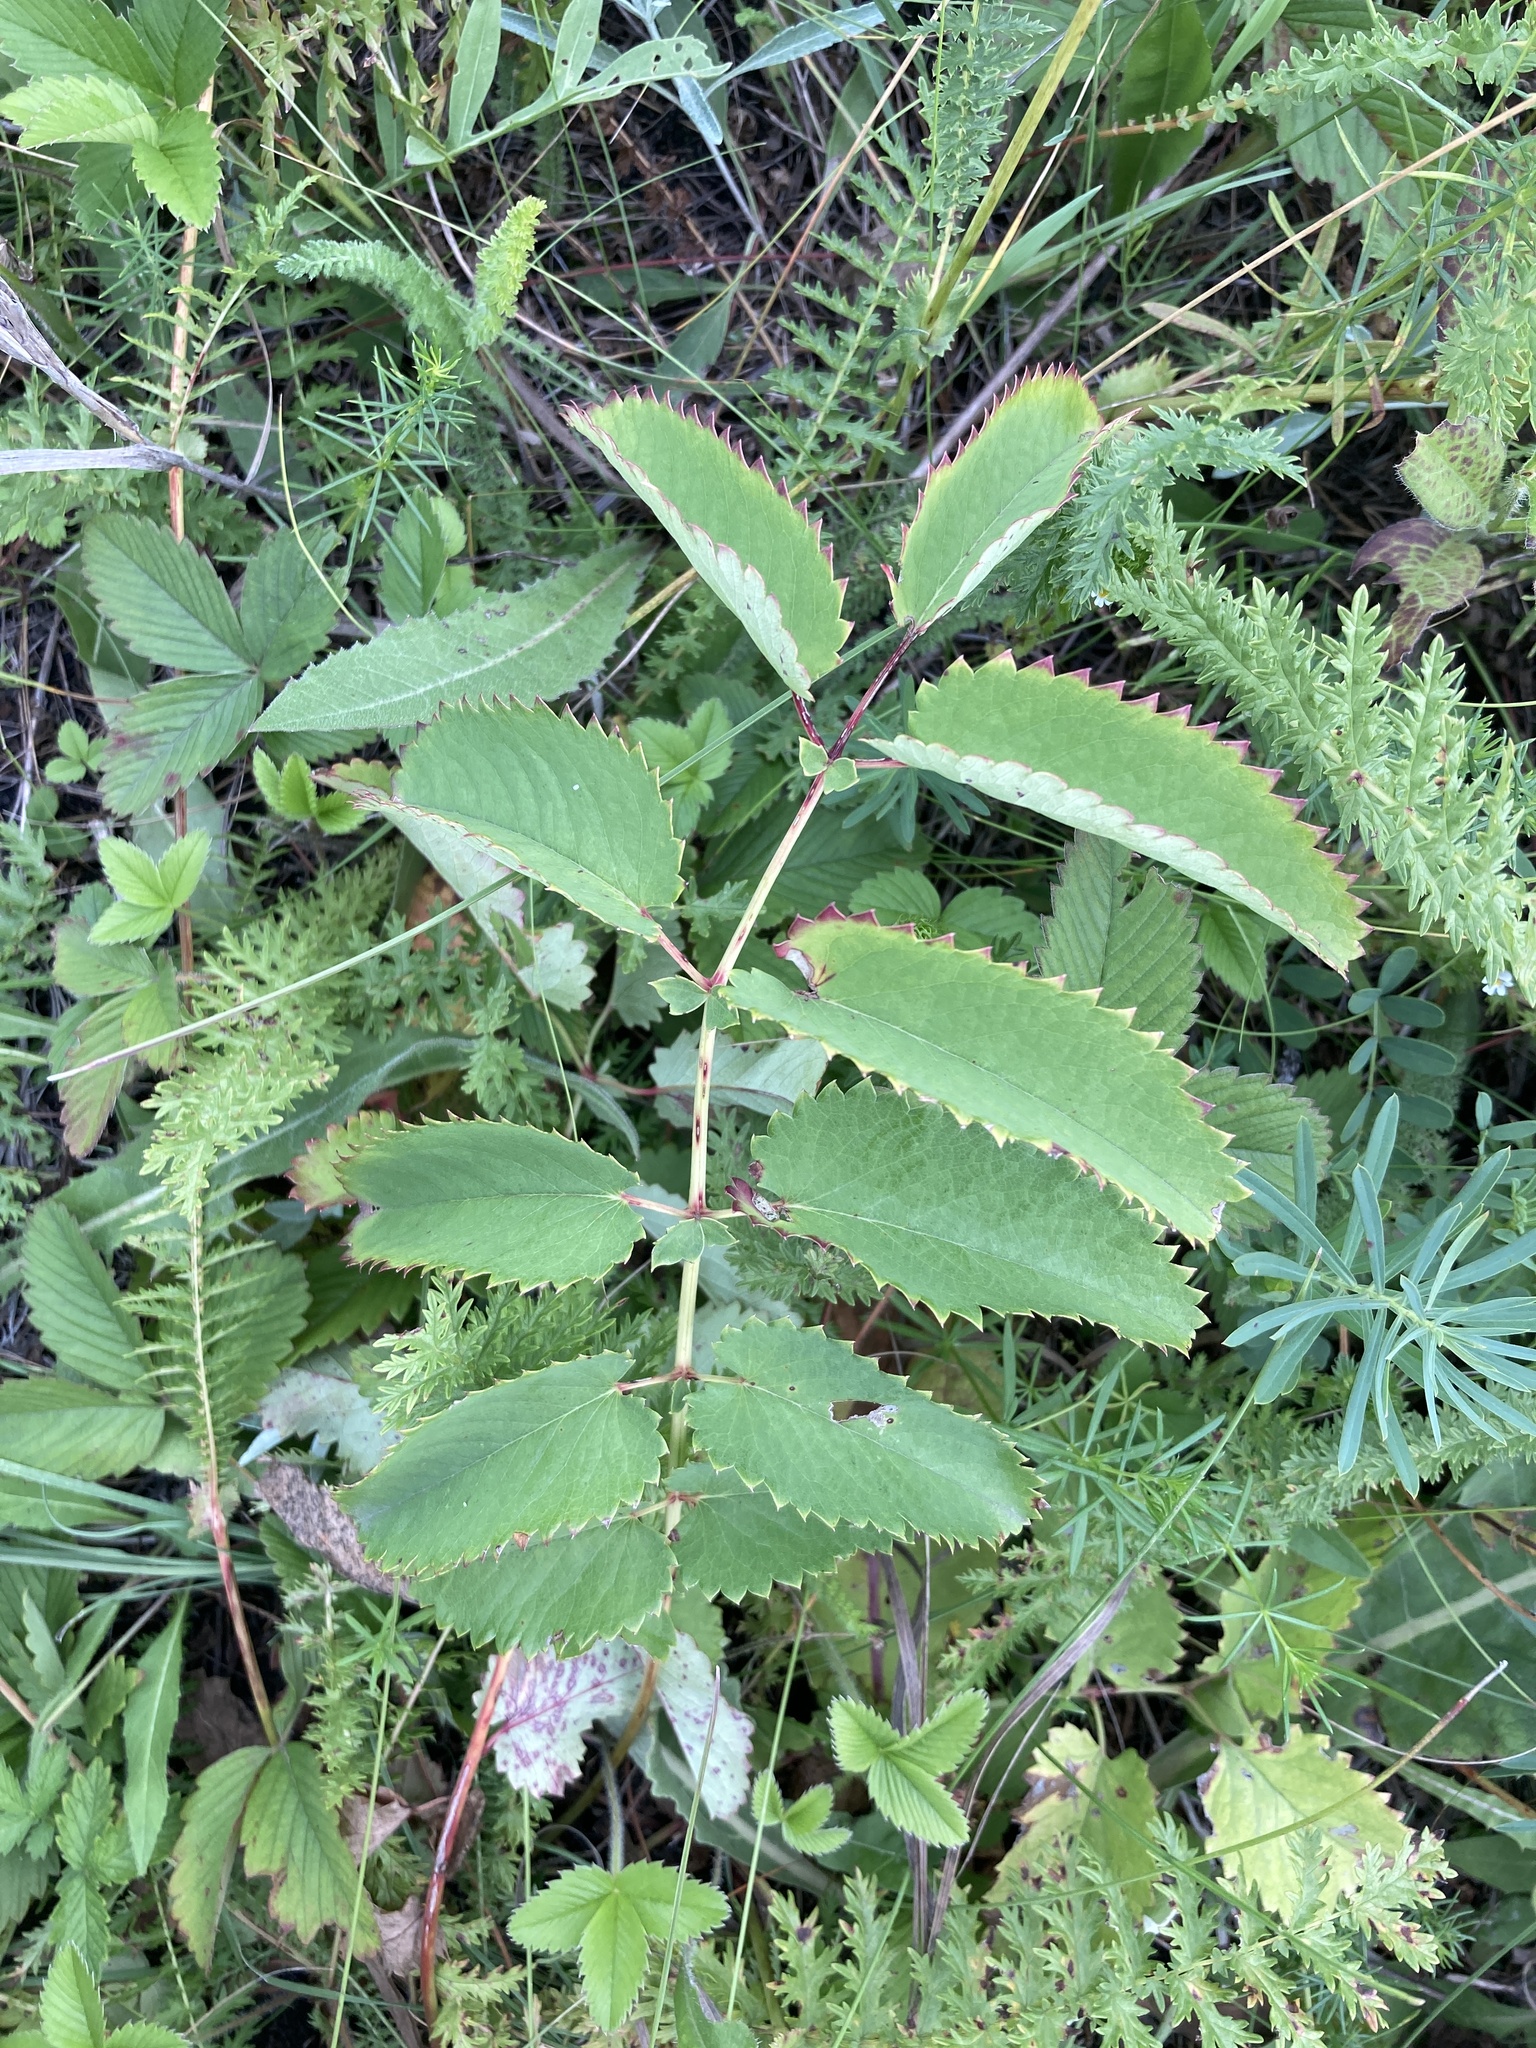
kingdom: Plantae
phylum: Tracheophyta
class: Magnoliopsida
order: Rosales
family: Rosaceae
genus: Sanguisorba
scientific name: Sanguisorba officinalis
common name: Great burnet
